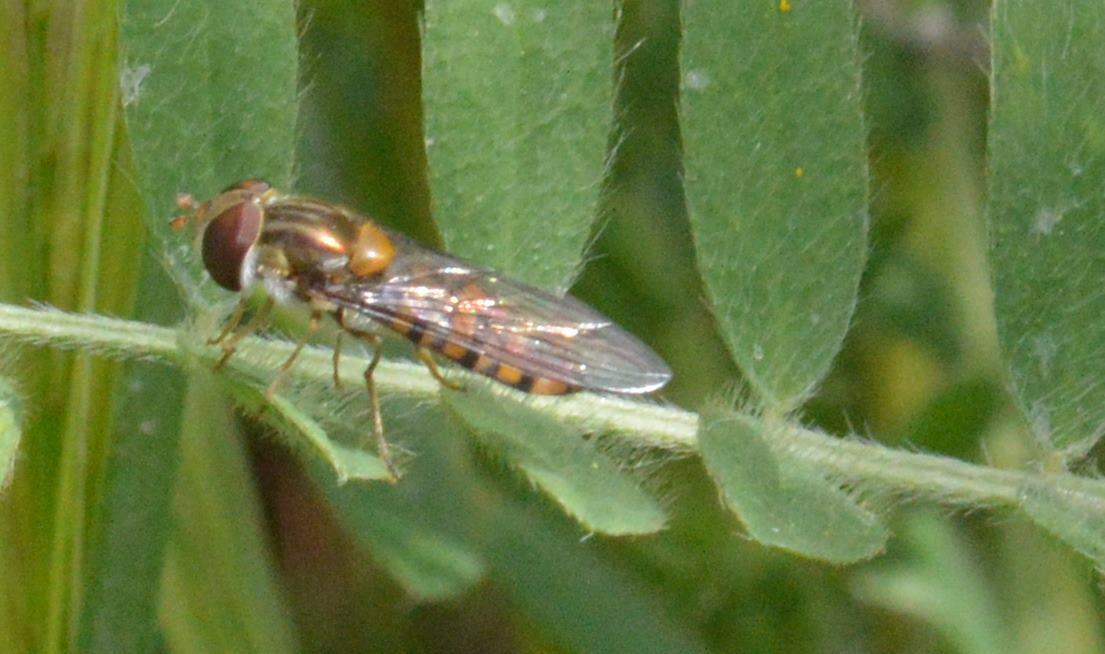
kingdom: Animalia
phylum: Arthropoda
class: Insecta
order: Diptera
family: Syrphidae
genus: Episyrphus
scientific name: Episyrphus balteatus
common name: Marmalade hoverfly
